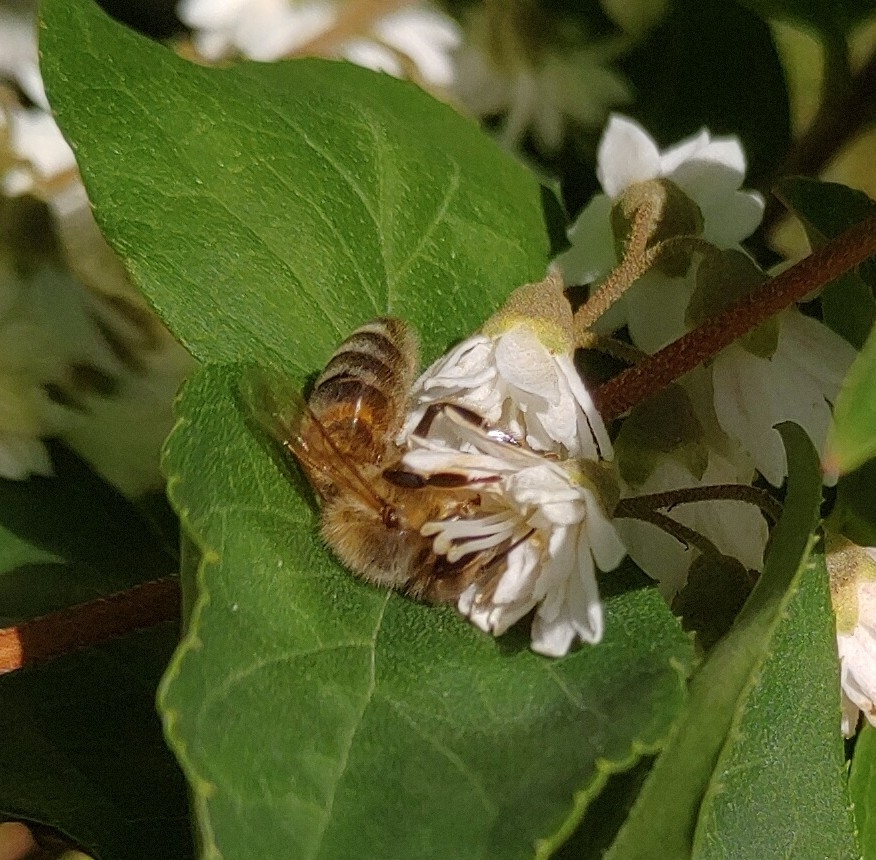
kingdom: Animalia
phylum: Arthropoda
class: Insecta
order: Hymenoptera
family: Apidae
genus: Apis
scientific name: Apis mellifera
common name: Honey bee
